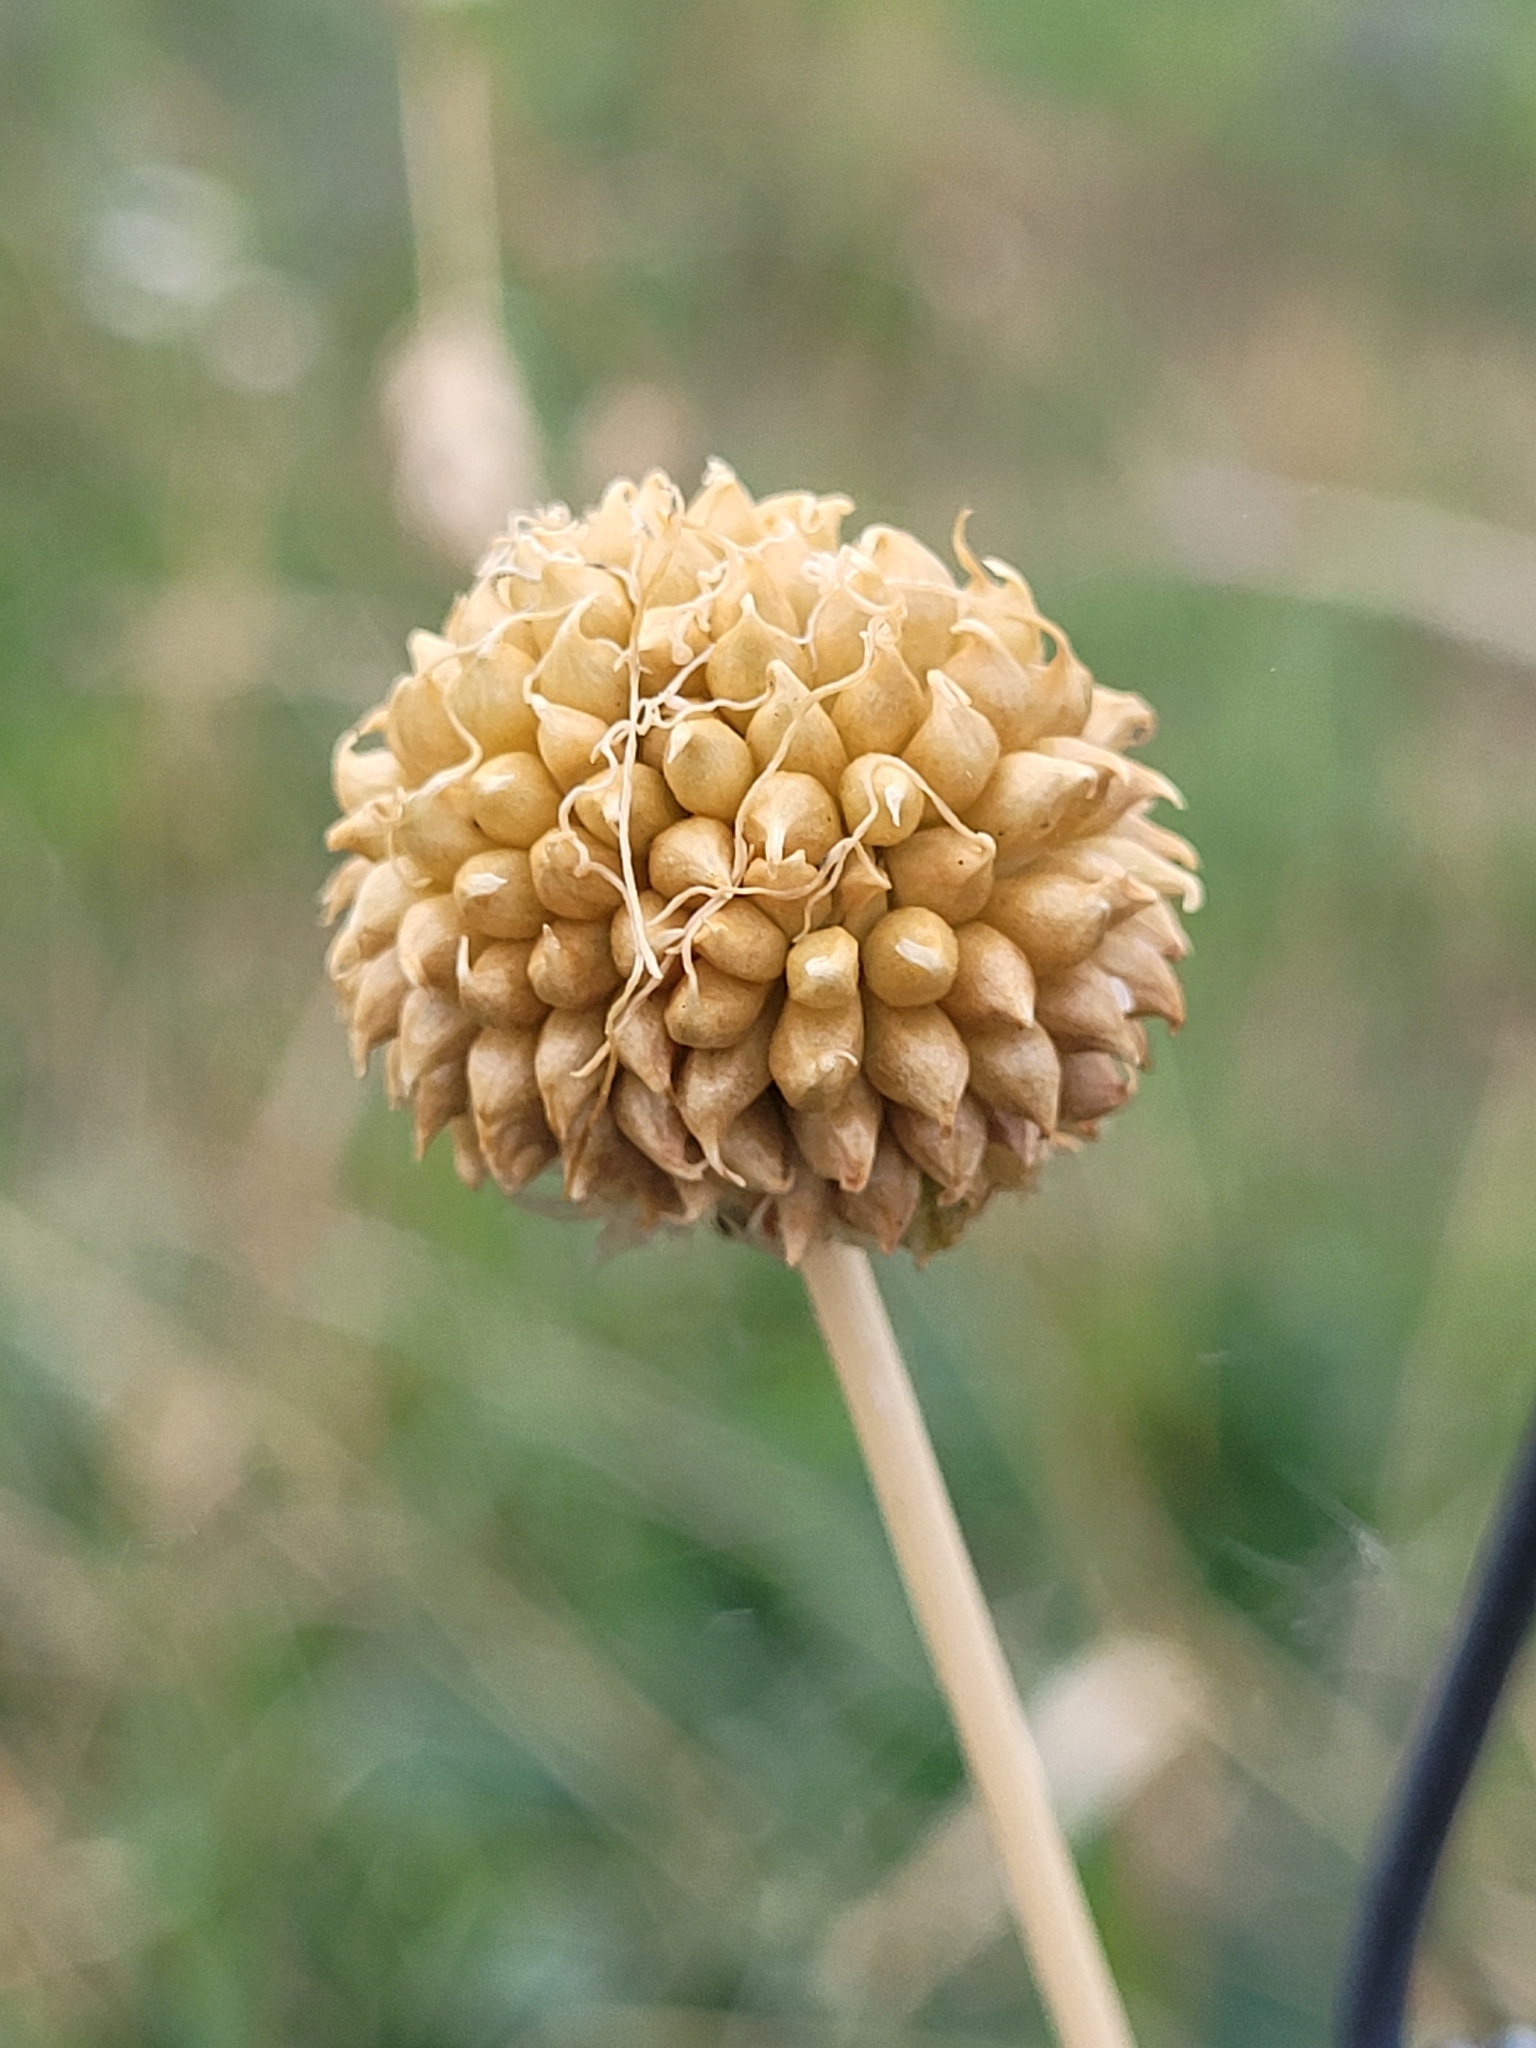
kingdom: Plantae
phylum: Tracheophyta
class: Liliopsida
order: Asparagales
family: Amaryllidaceae
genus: Allium
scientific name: Allium vineale
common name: Crow garlic
